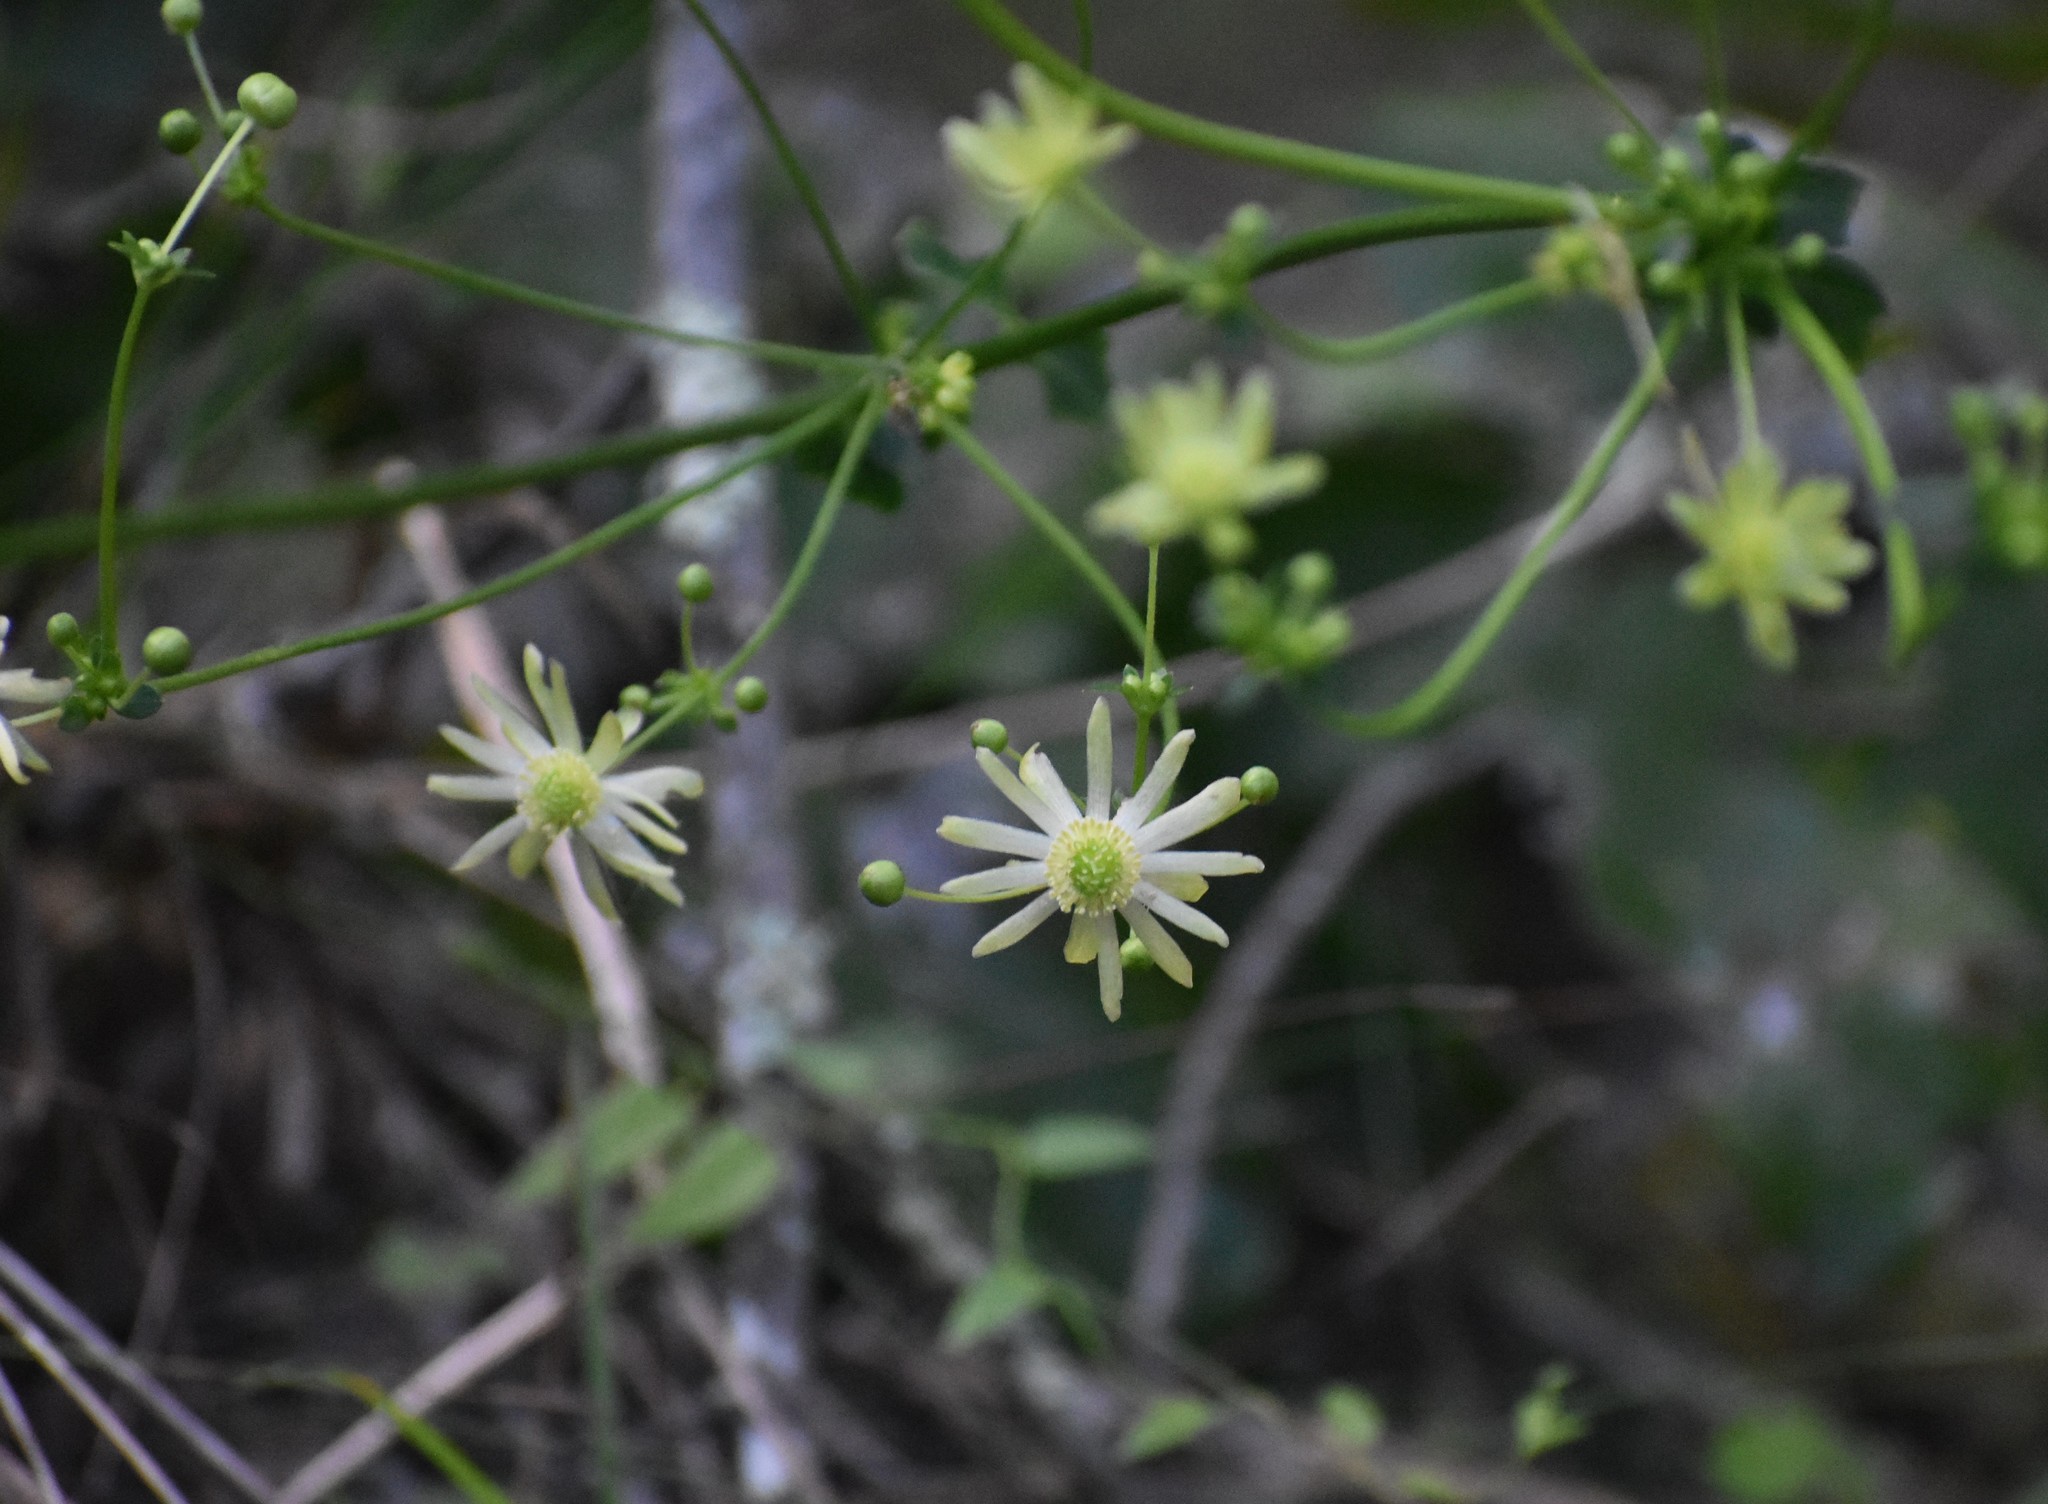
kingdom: Plantae
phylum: Tracheophyta
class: Magnoliopsida
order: Ranunculales
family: Ranunculaceae
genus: Knowltonia
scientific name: Knowltonia vesicatoria
